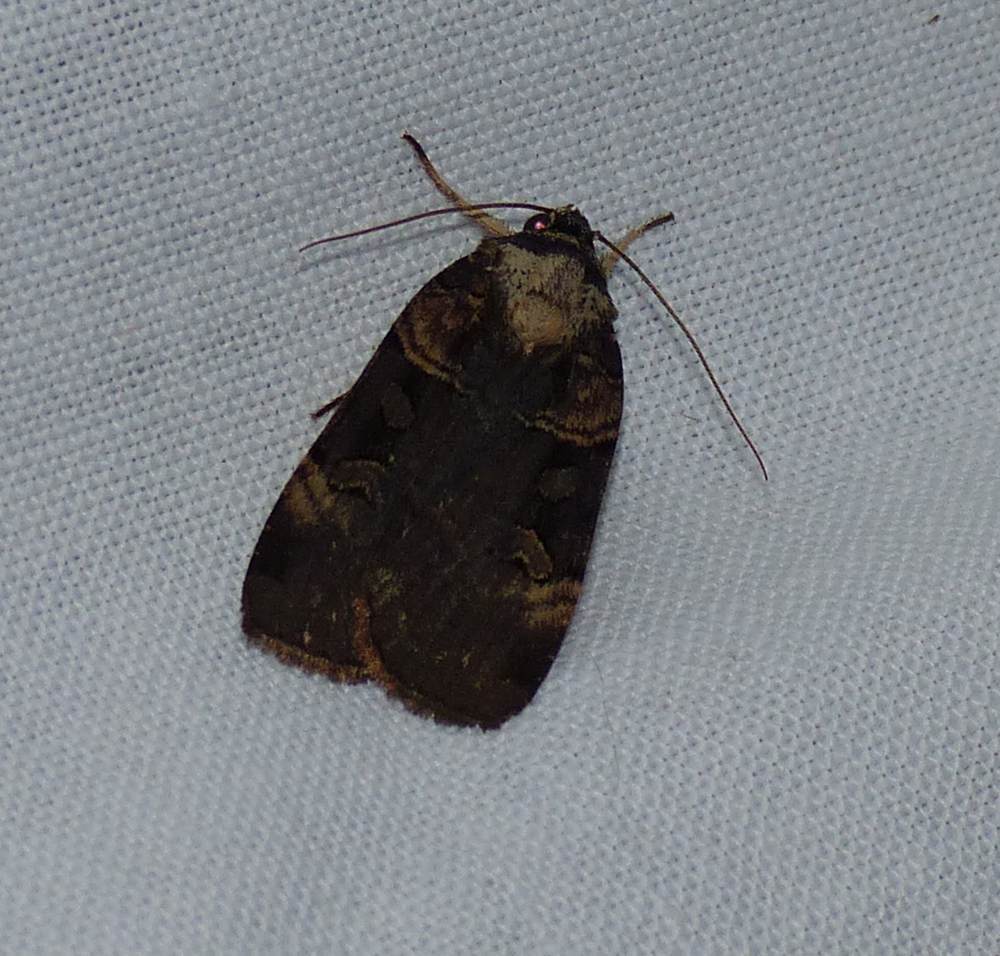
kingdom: Animalia
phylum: Arthropoda
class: Insecta
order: Lepidoptera
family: Noctuidae
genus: Pseudohermonassa
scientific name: Pseudohermonassa bicarnea
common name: Pink spotted dart
